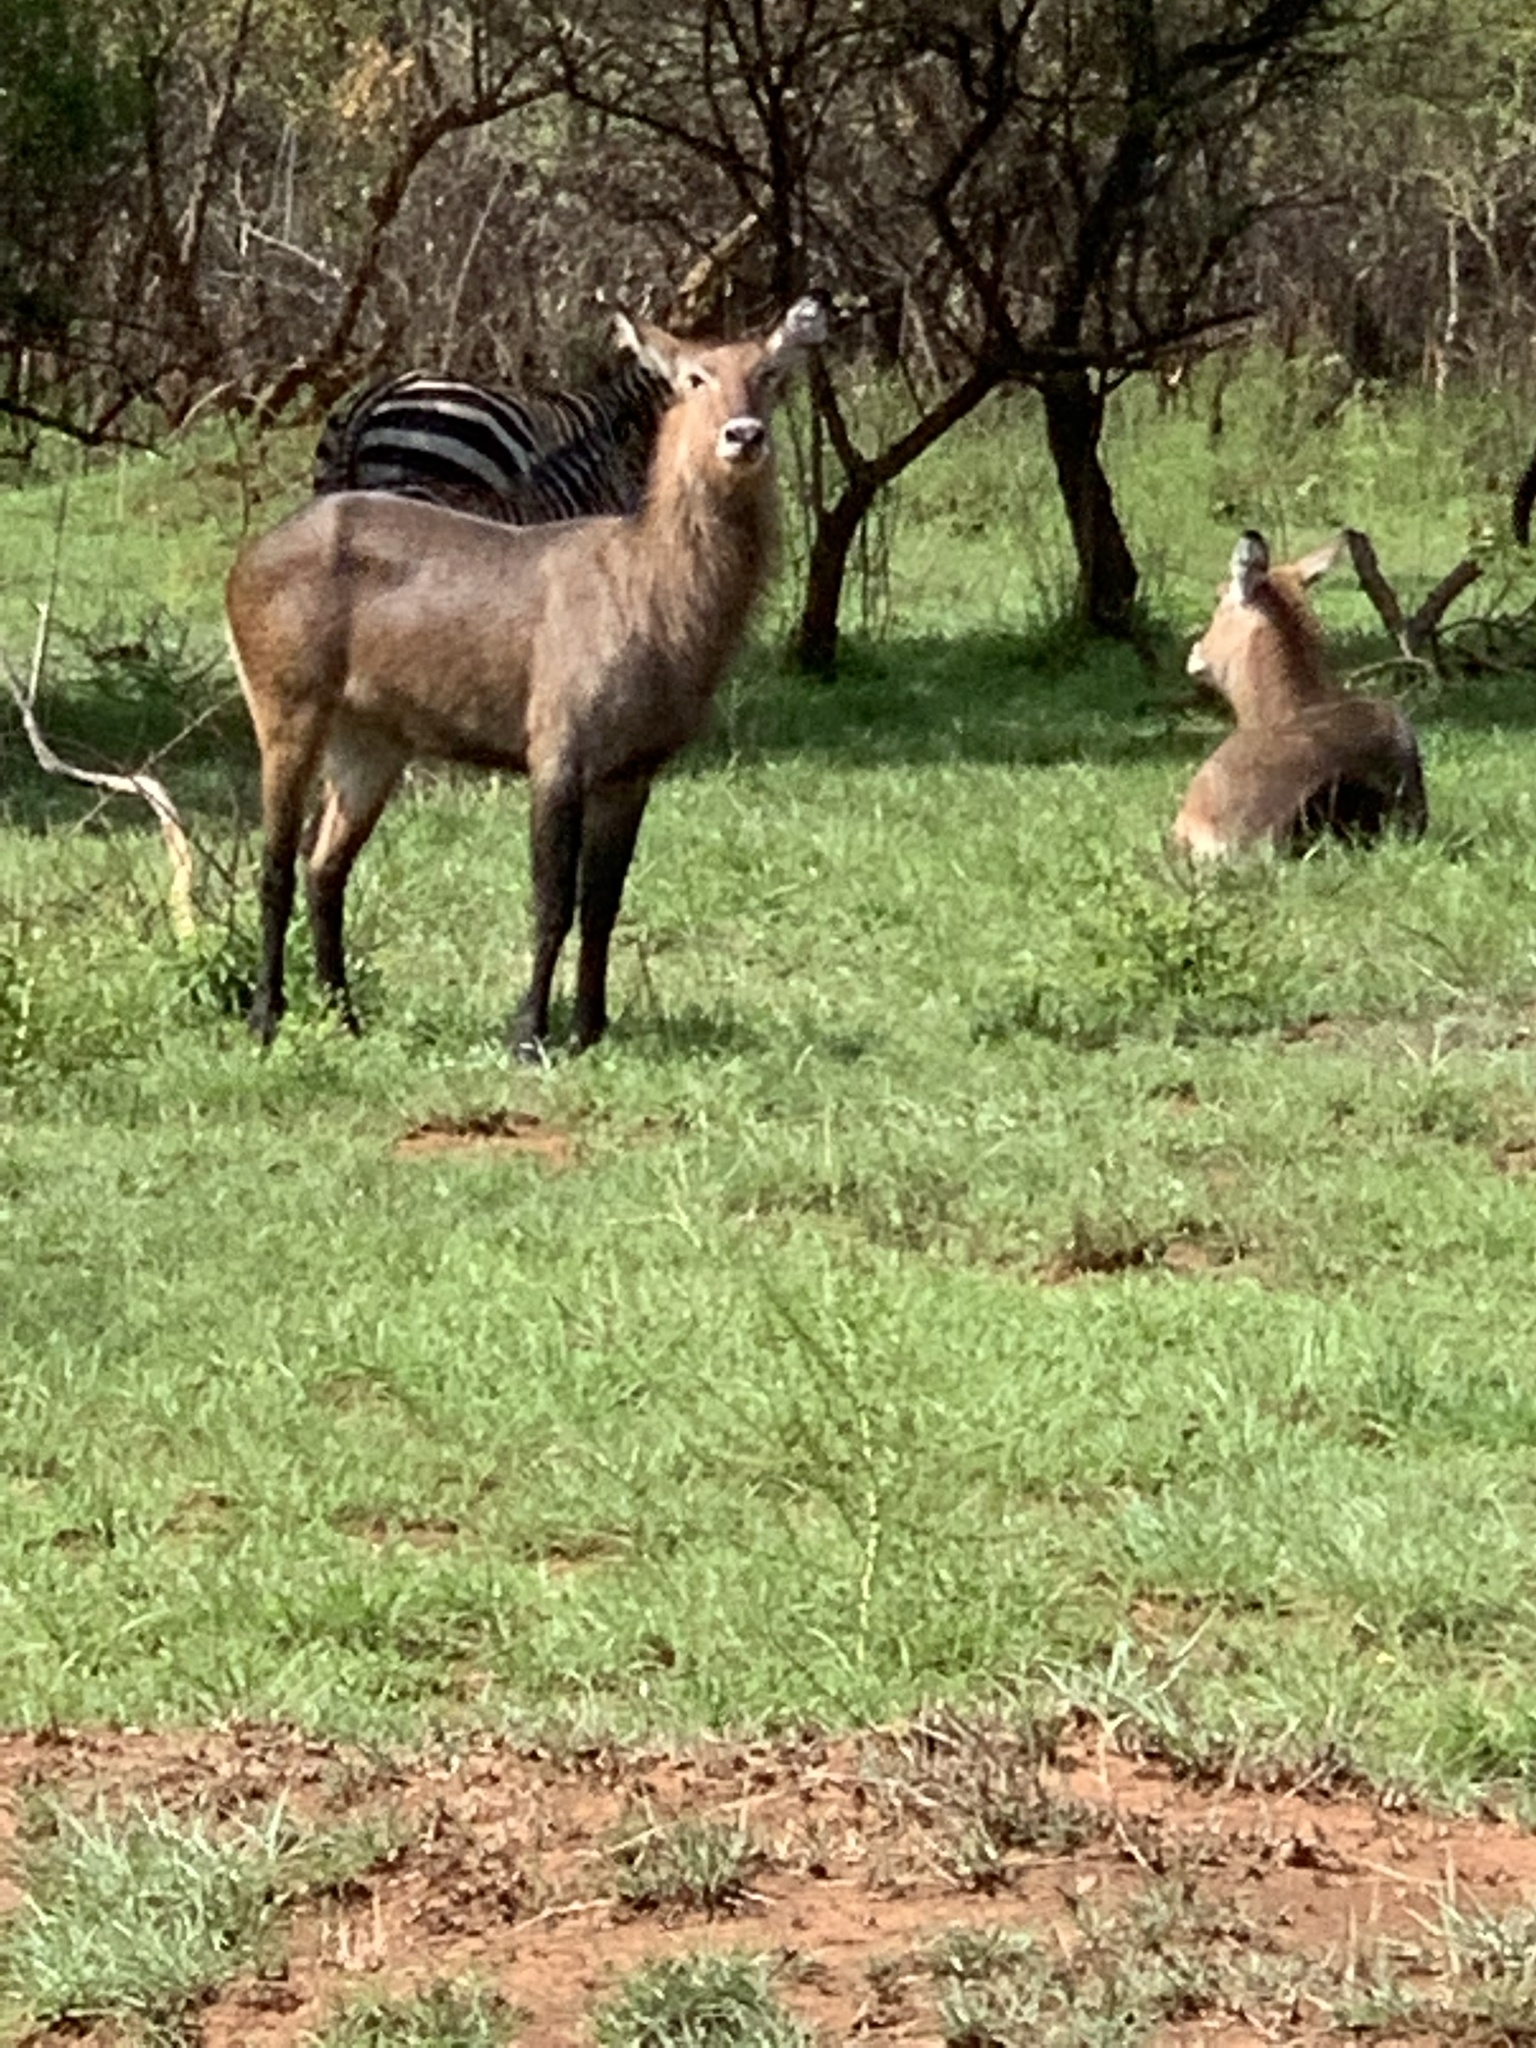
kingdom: Animalia
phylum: Chordata
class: Mammalia
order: Artiodactyla
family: Bovidae
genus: Kobus
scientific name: Kobus ellipsiprymnus
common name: Waterbuck
